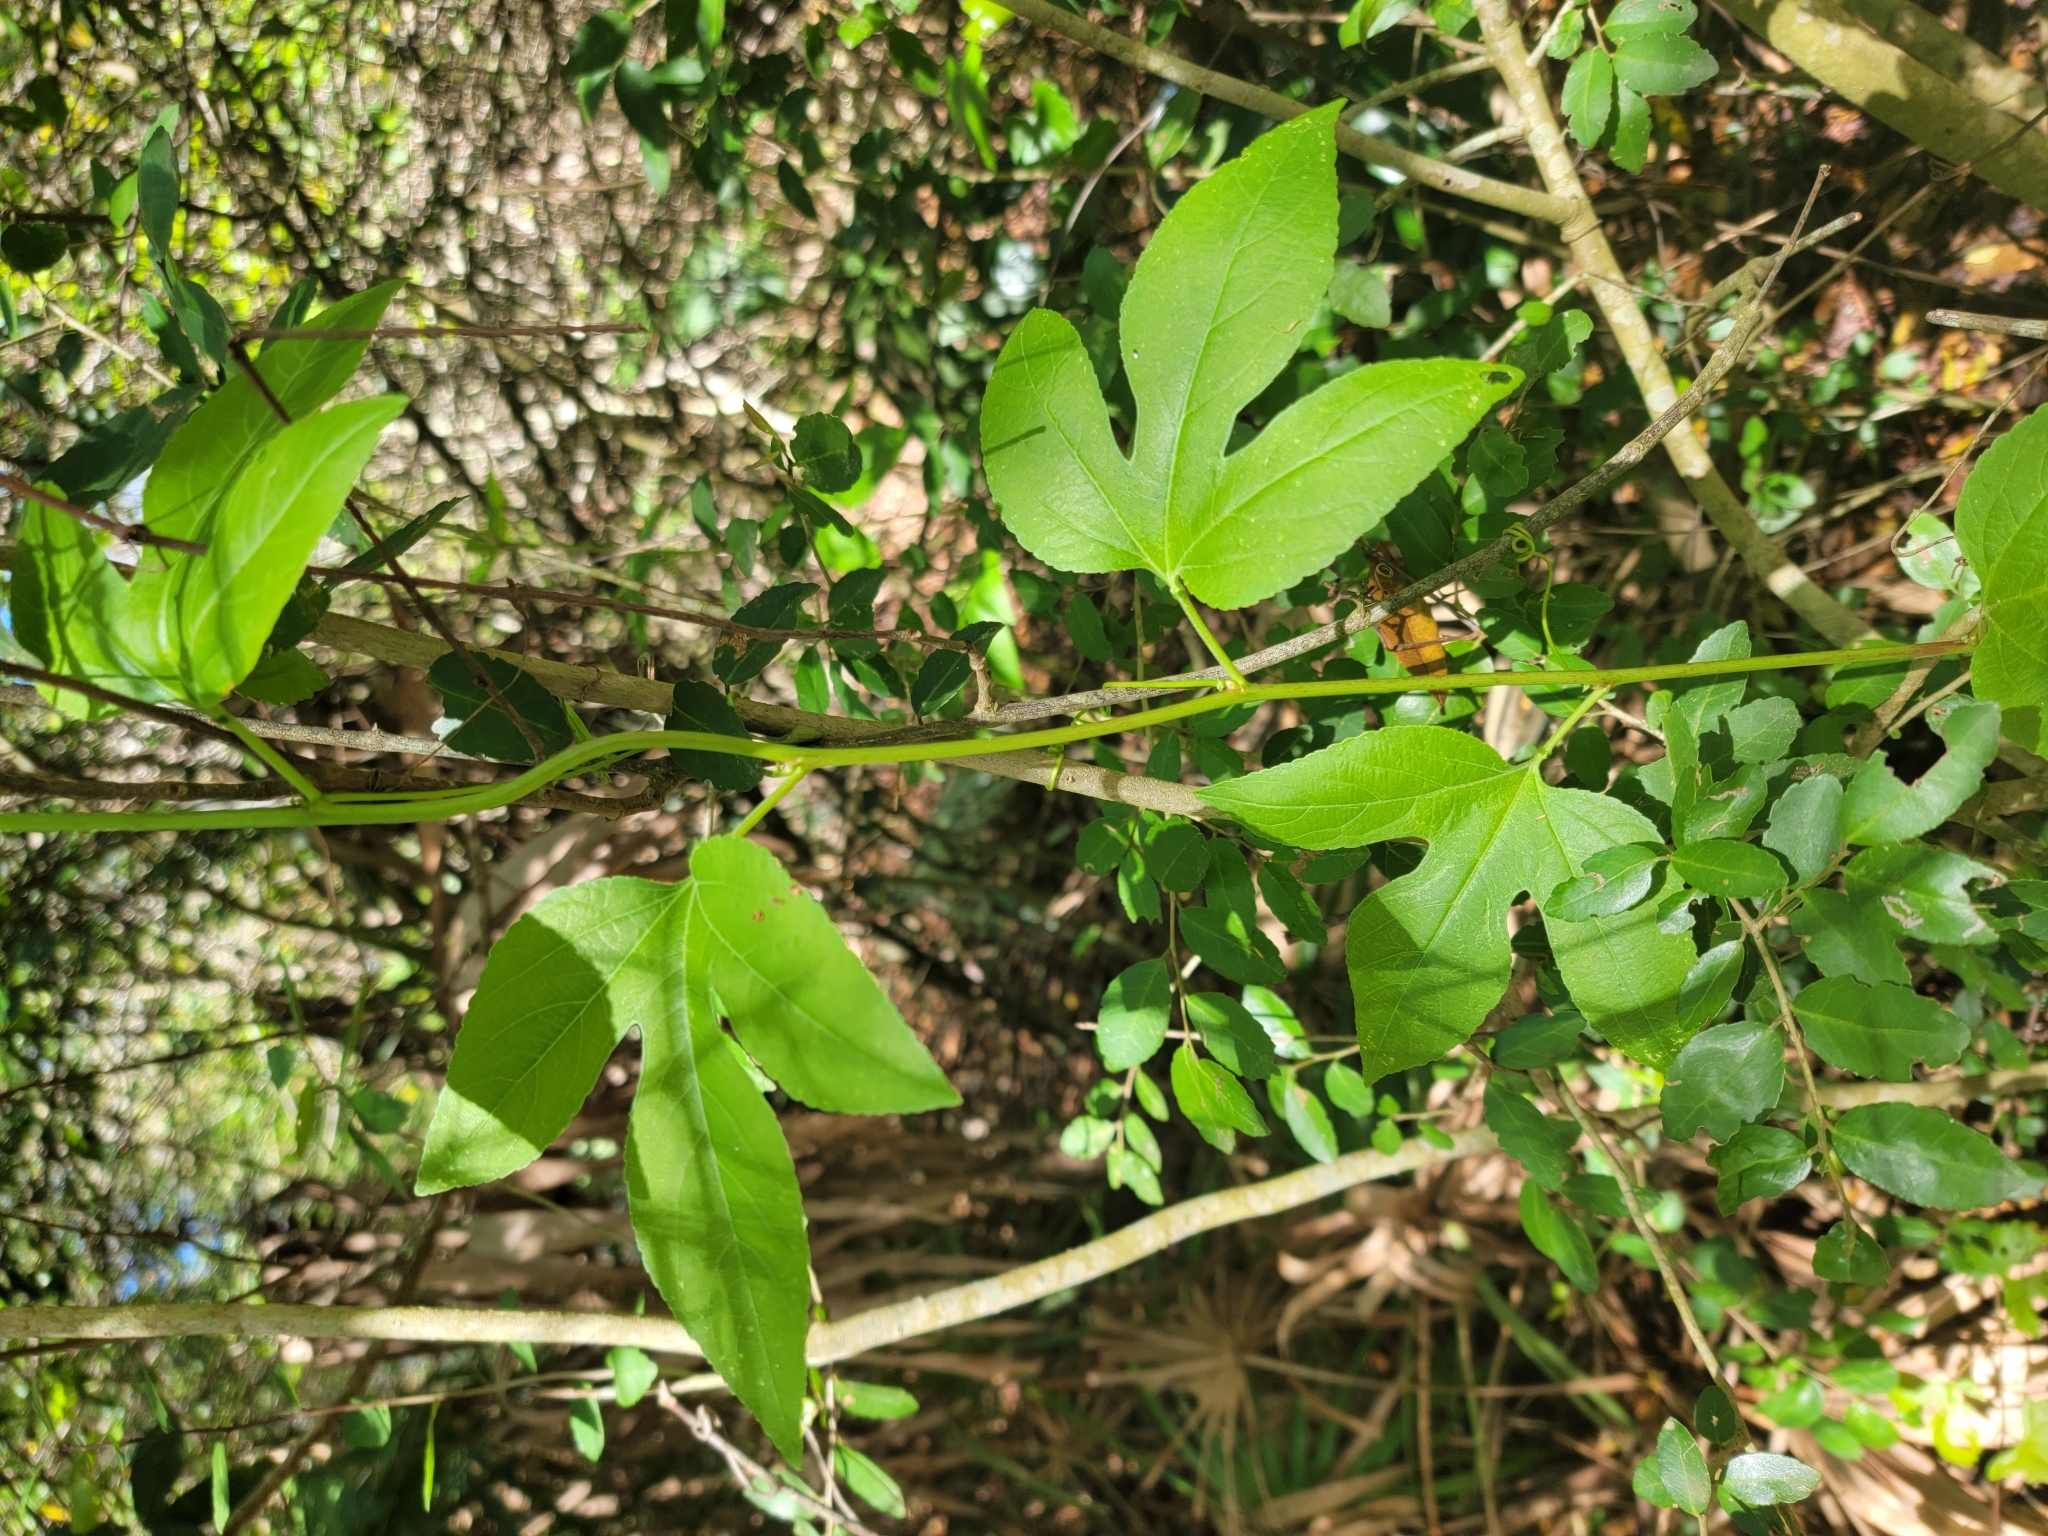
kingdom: Plantae
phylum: Tracheophyta
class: Magnoliopsida
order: Malpighiales
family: Passifloraceae
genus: Passiflora
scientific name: Passiflora incarnata
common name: Apricot-vine
